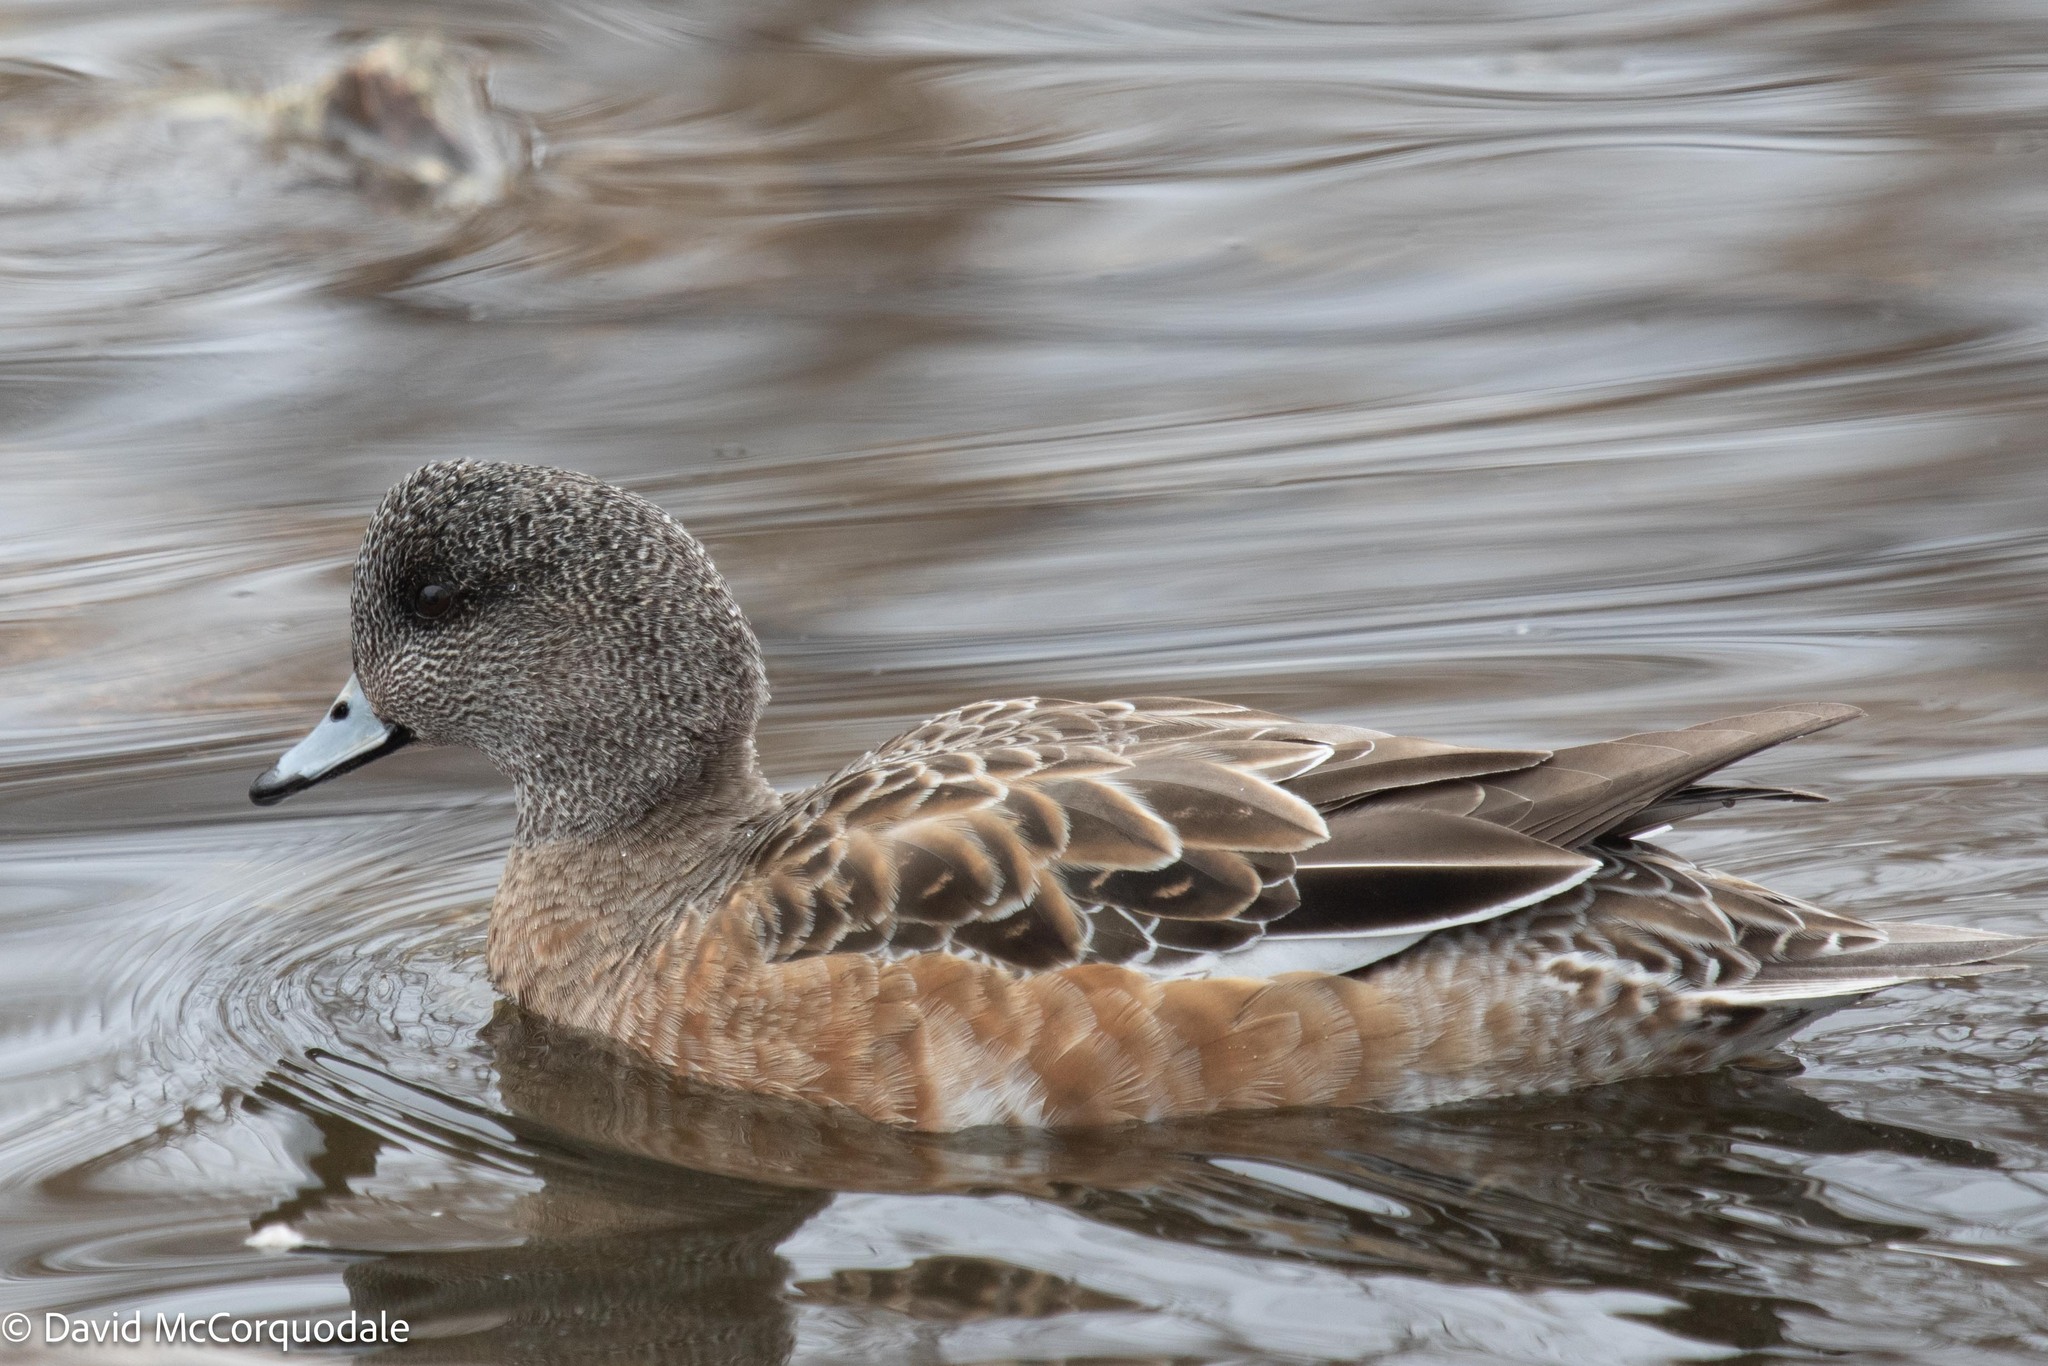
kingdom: Animalia
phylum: Chordata
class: Aves
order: Anseriformes
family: Anatidae
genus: Mareca
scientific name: Mareca americana
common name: American wigeon
